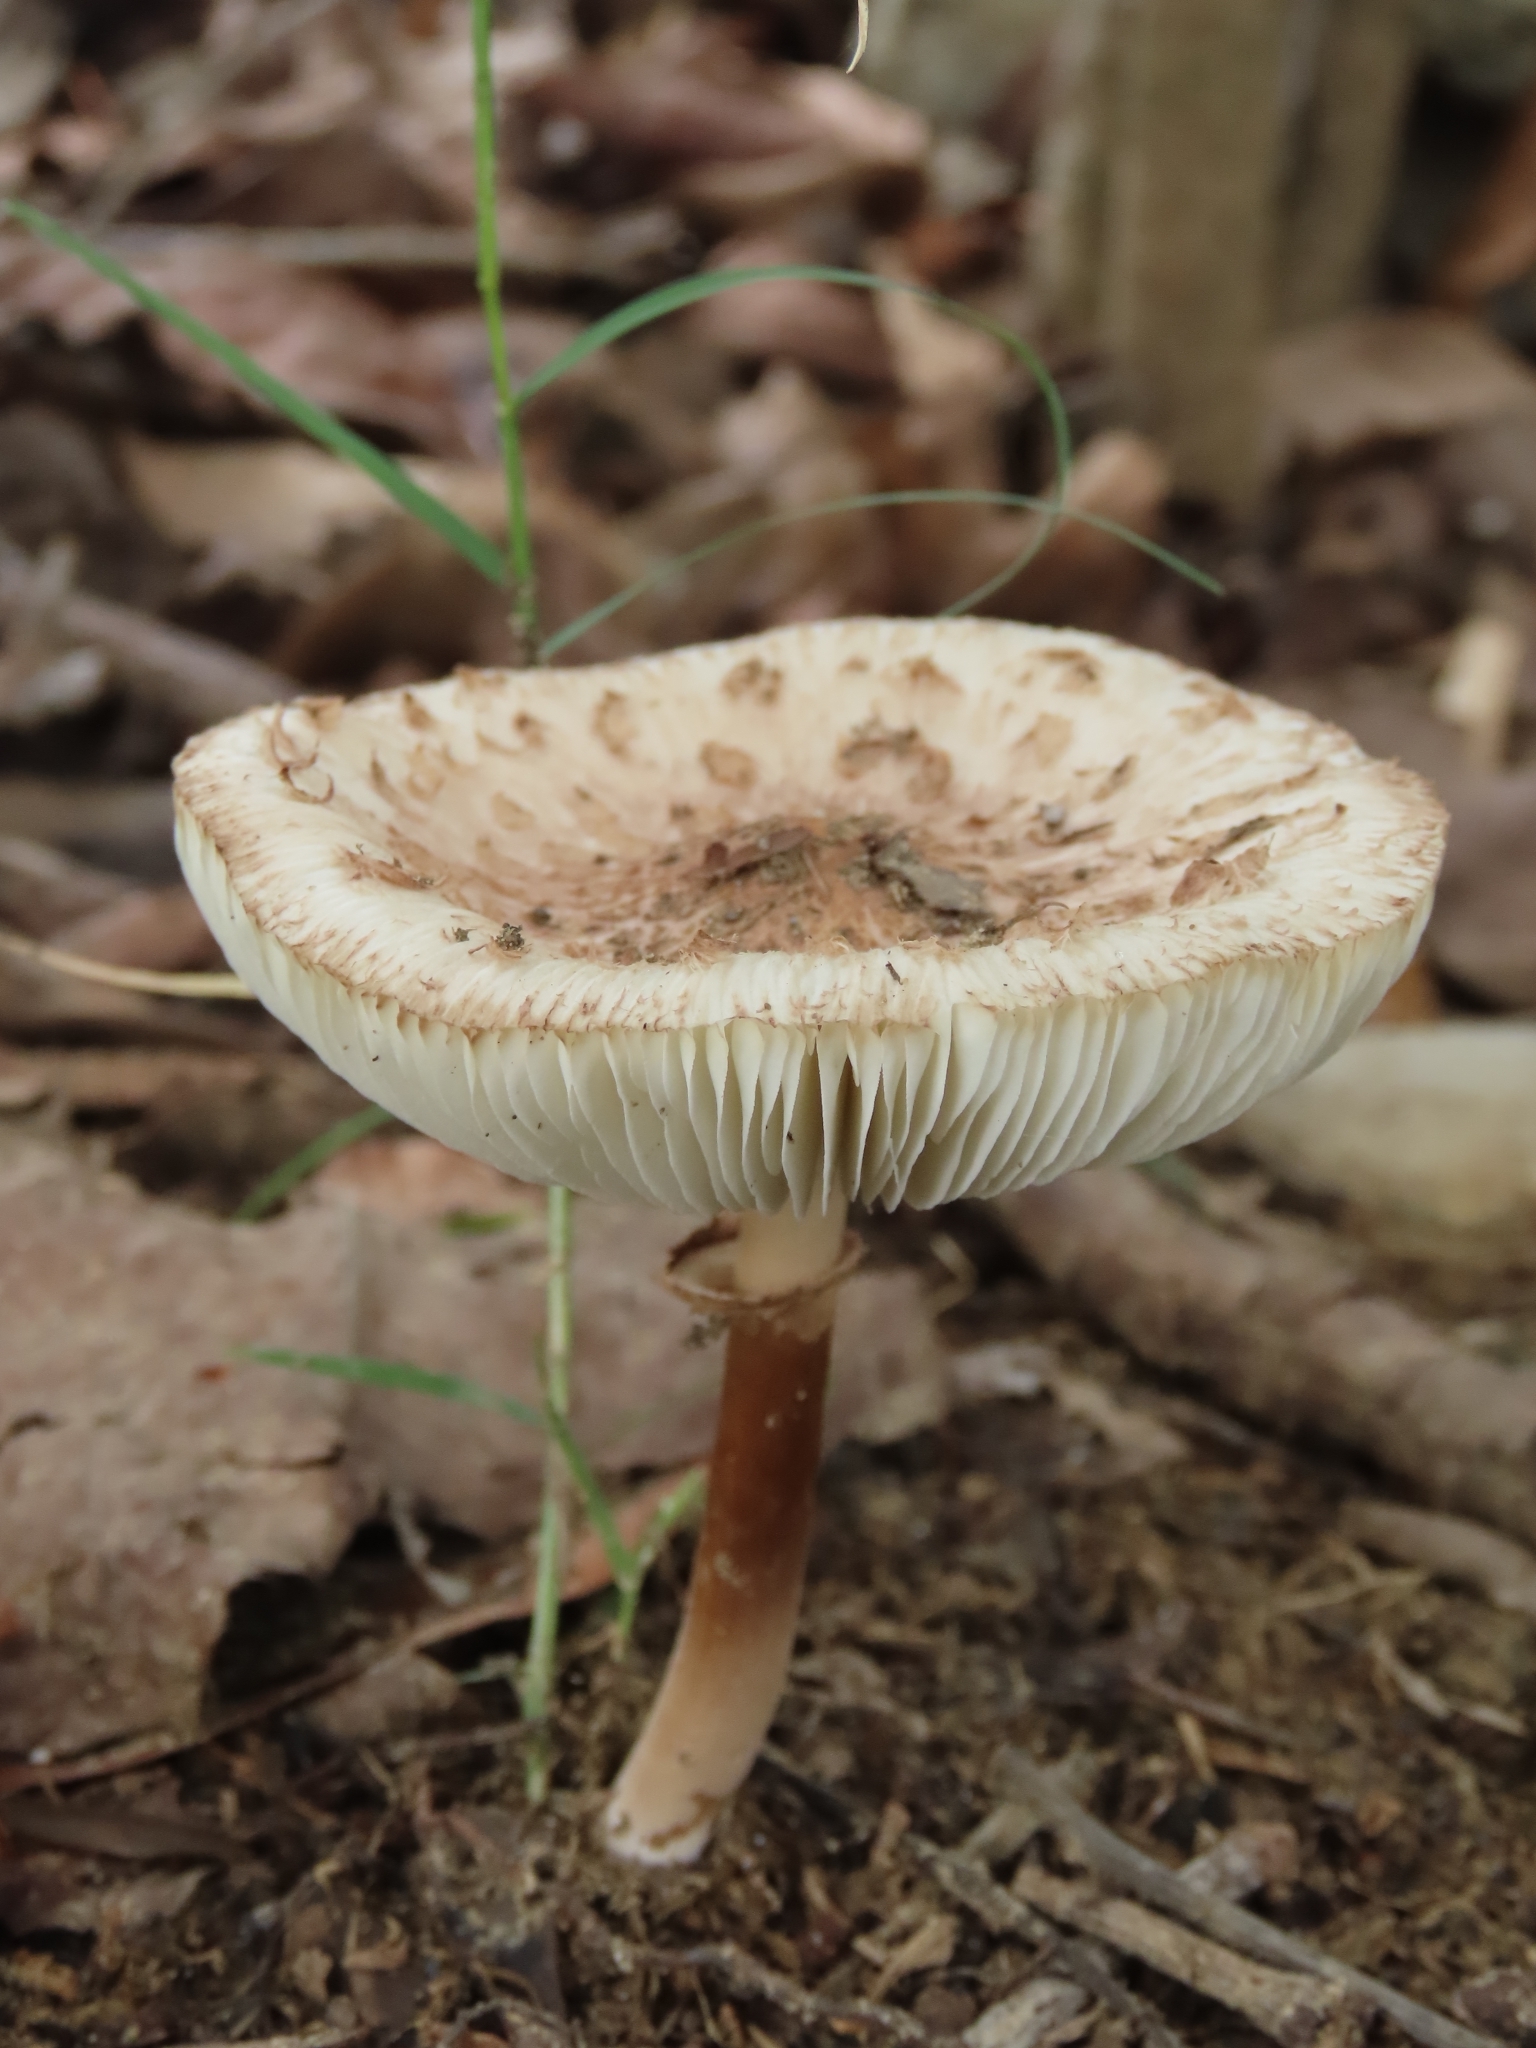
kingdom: Fungi
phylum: Basidiomycota
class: Agaricomycetes
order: Agaricales
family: Agaricaceae
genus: Chlorophyllum
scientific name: Chlorophyllum molybdites
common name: False parasol
